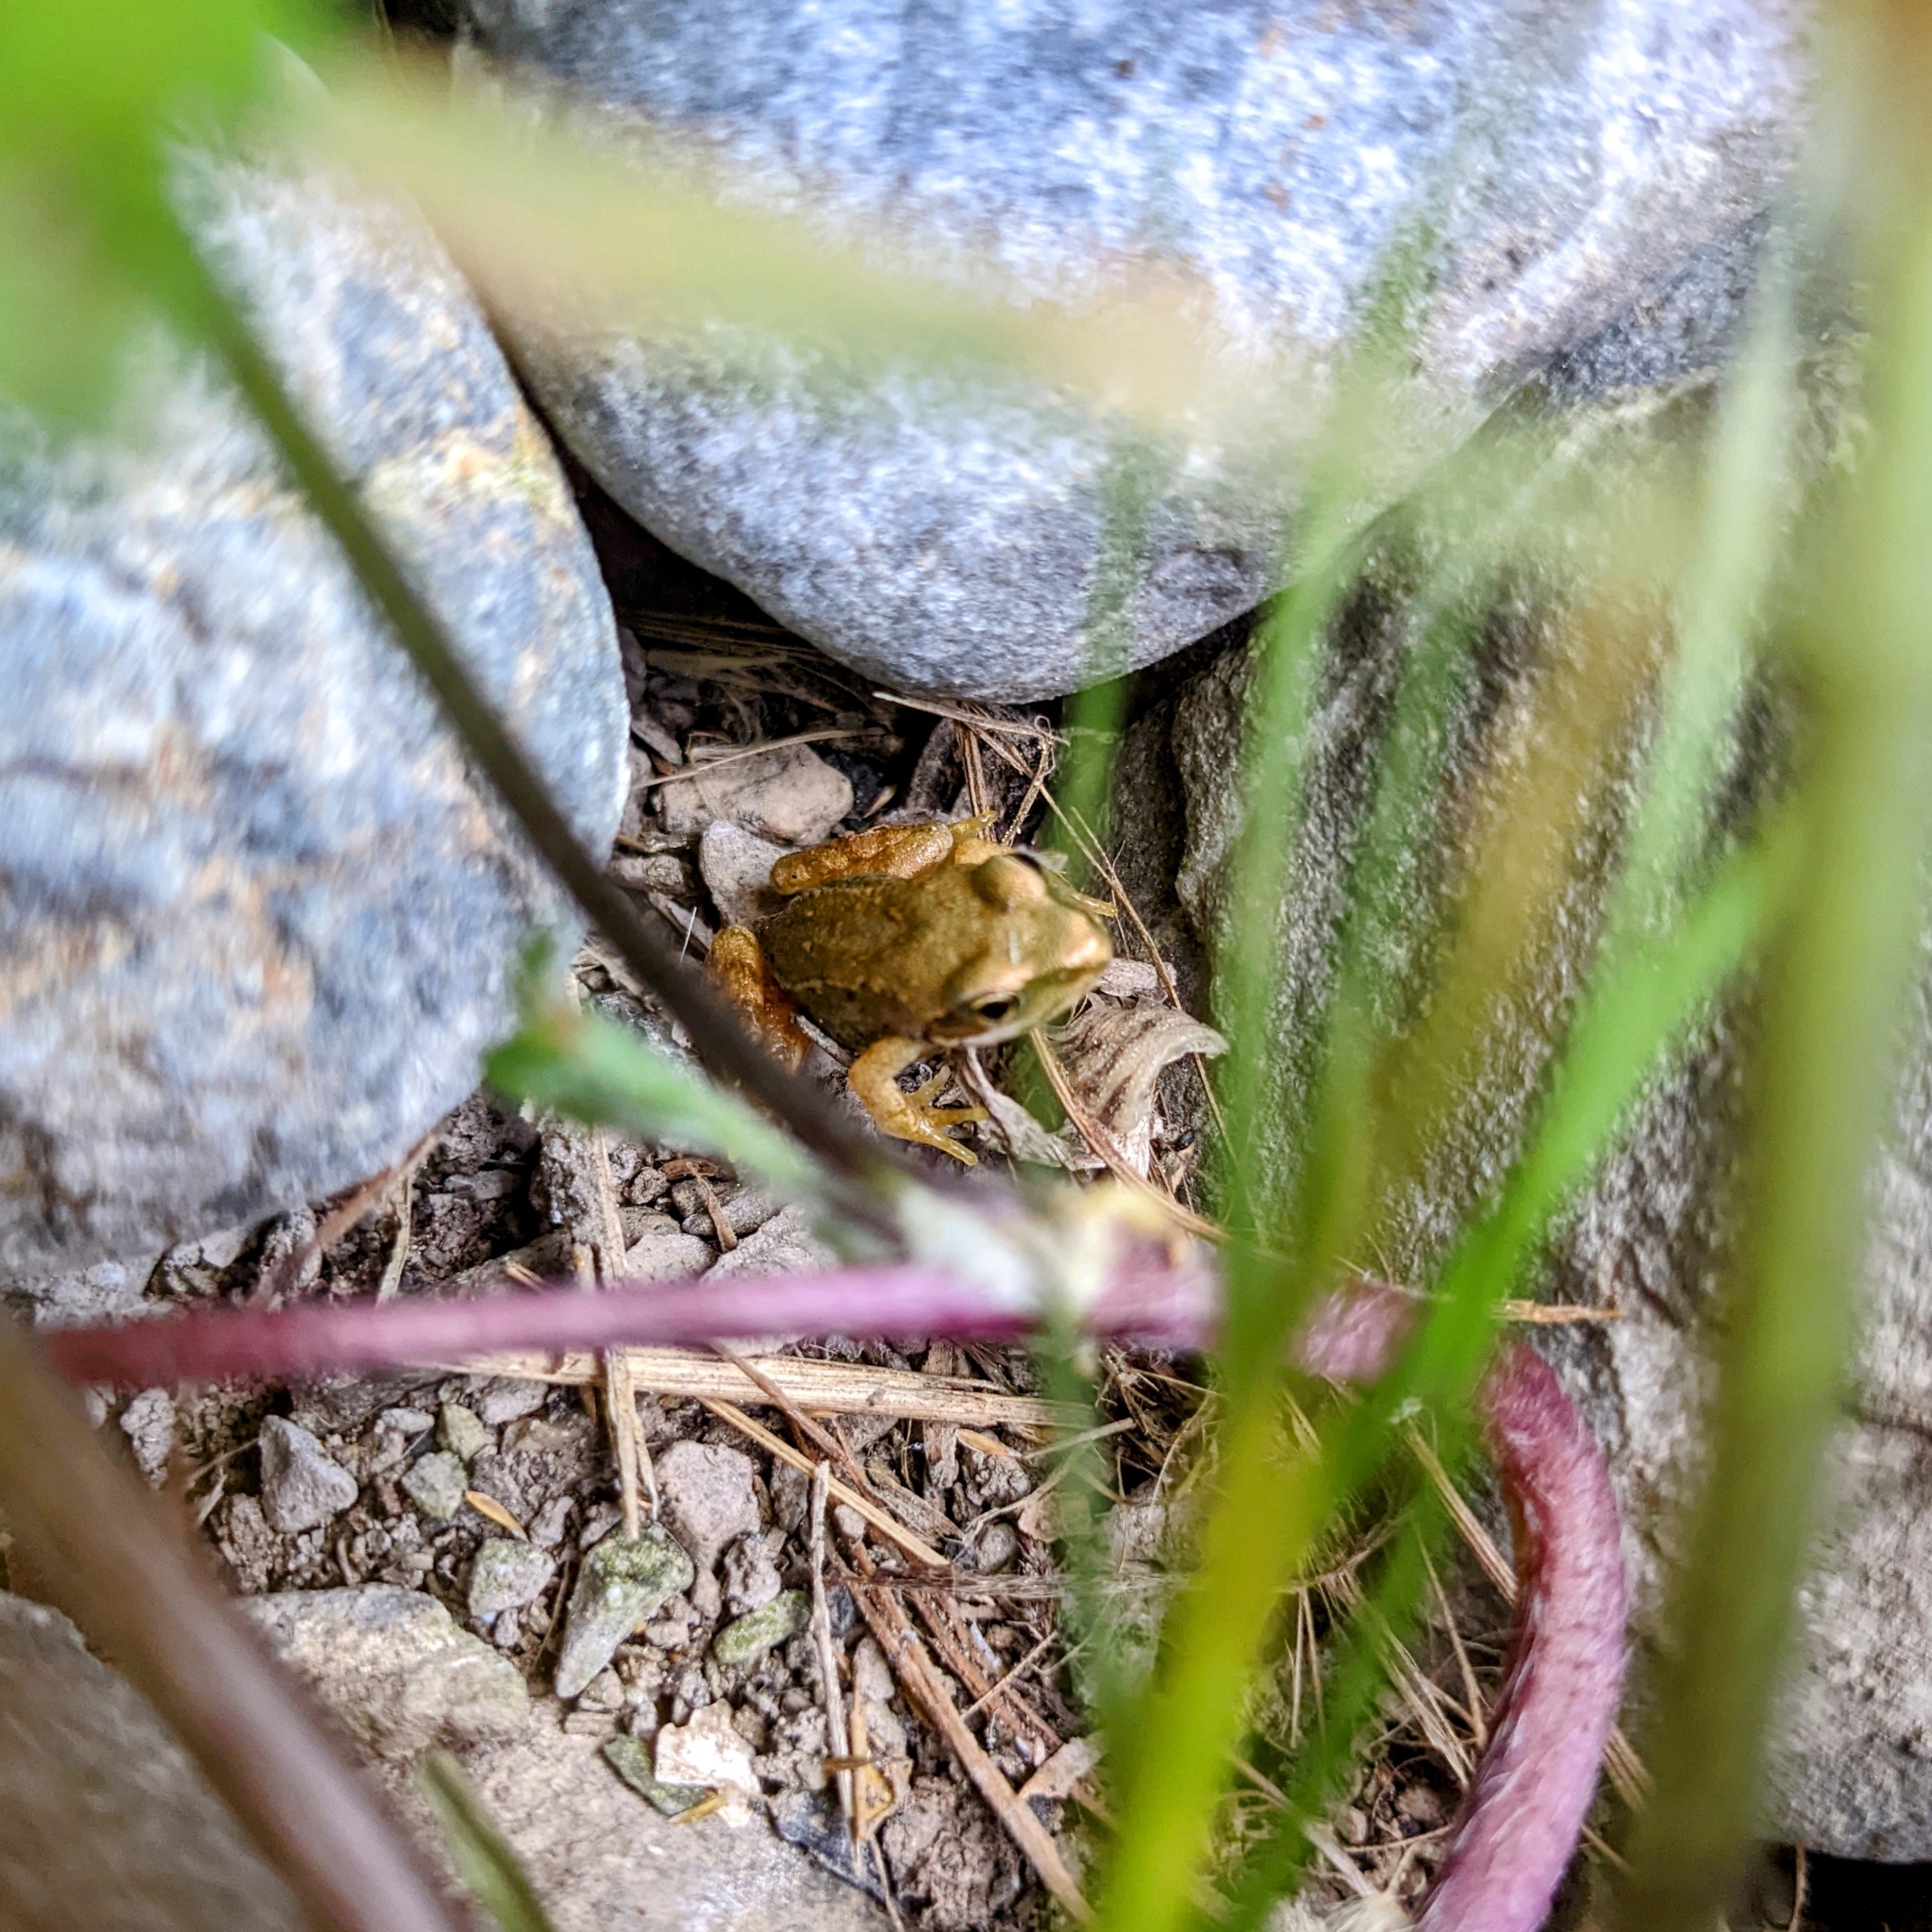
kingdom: Animalia
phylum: Chordata
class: Amphibia
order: Anura
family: Ranidae
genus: Rana
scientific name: Rana temporaria
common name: Common frog
